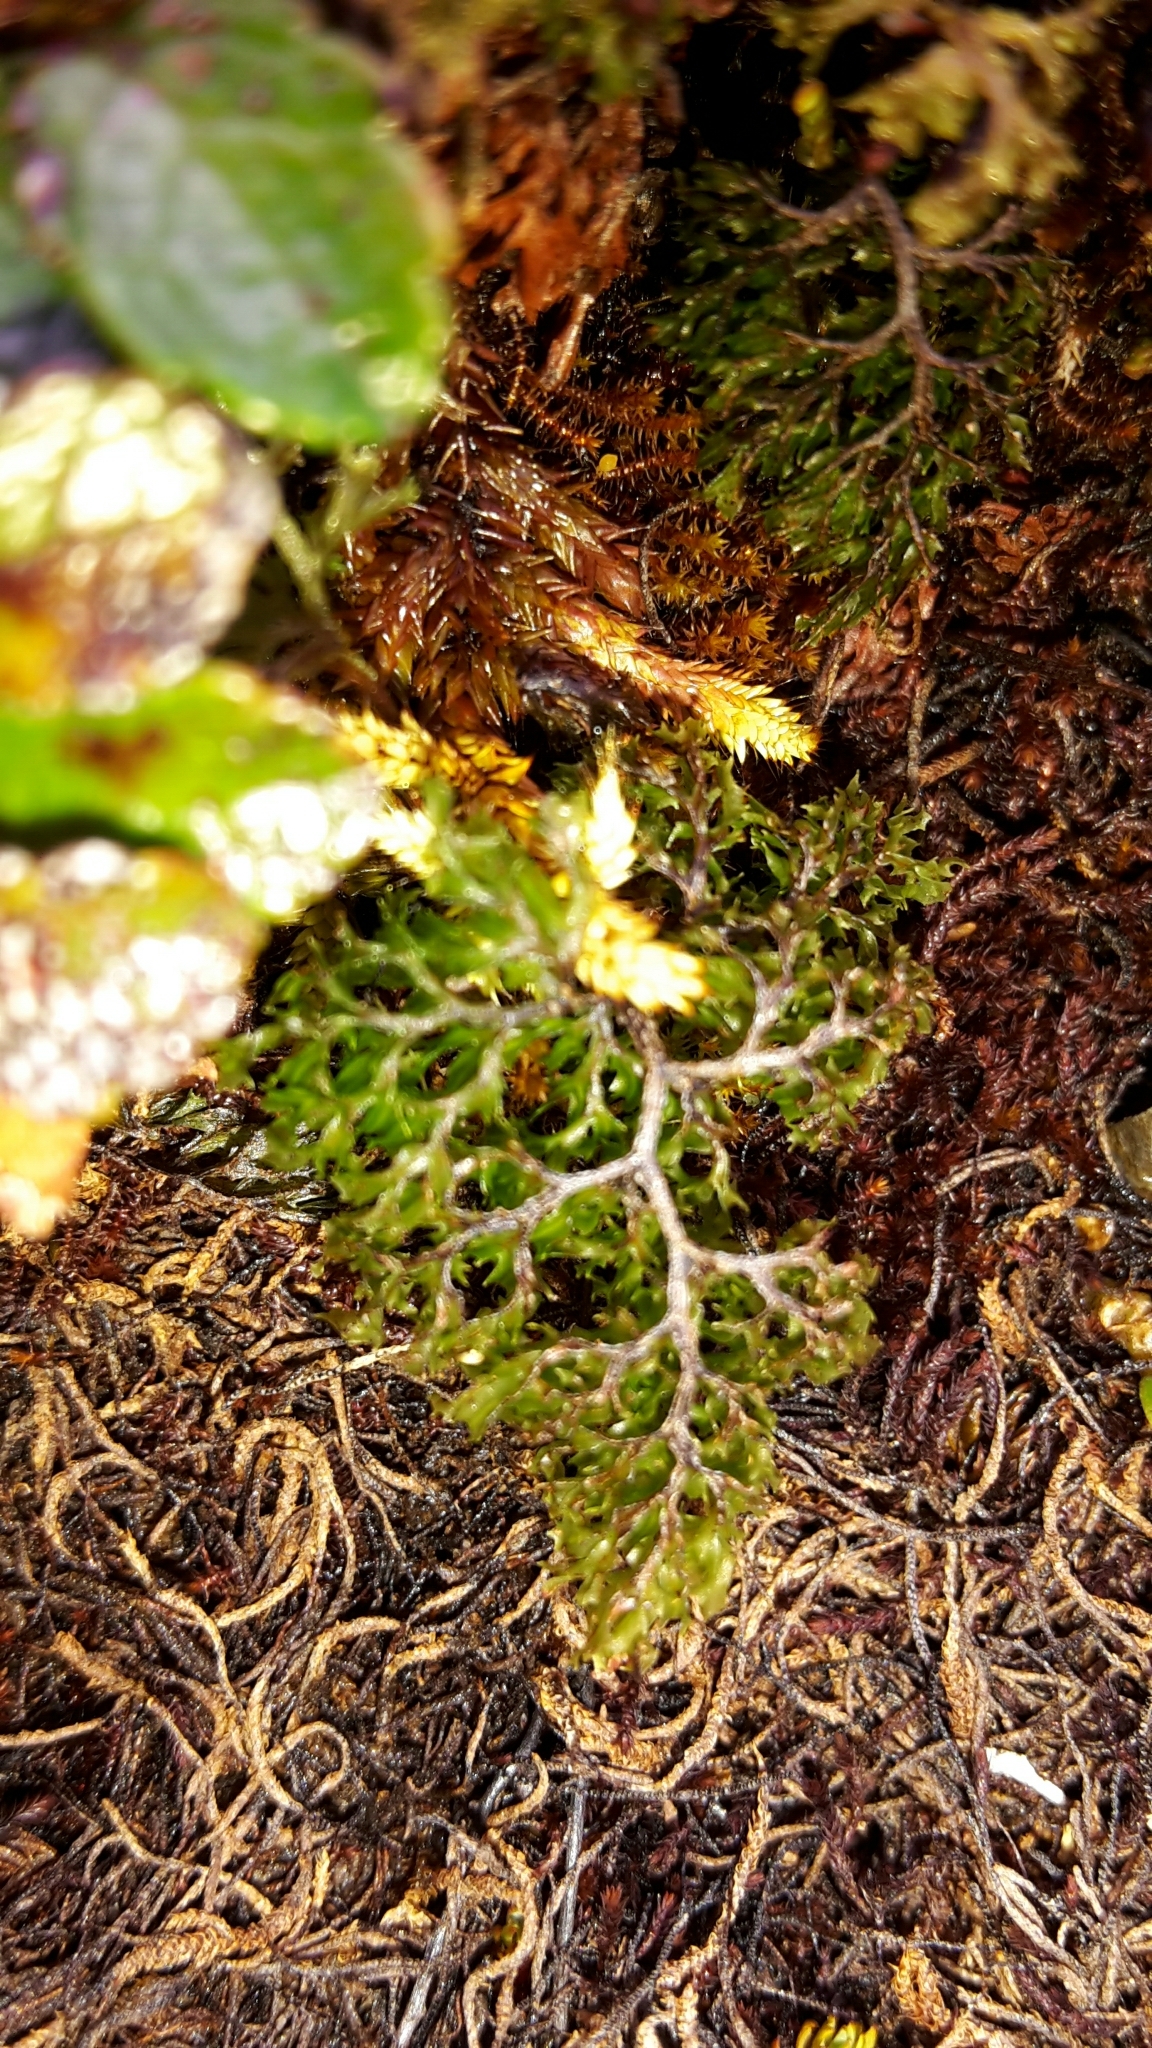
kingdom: Plantae
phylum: Tracheophyta
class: Polypodiopsida
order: Hymenophyllales
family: Hymenophyllaceae
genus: Hymenophyllum
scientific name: Hymenophyllum multifidum
